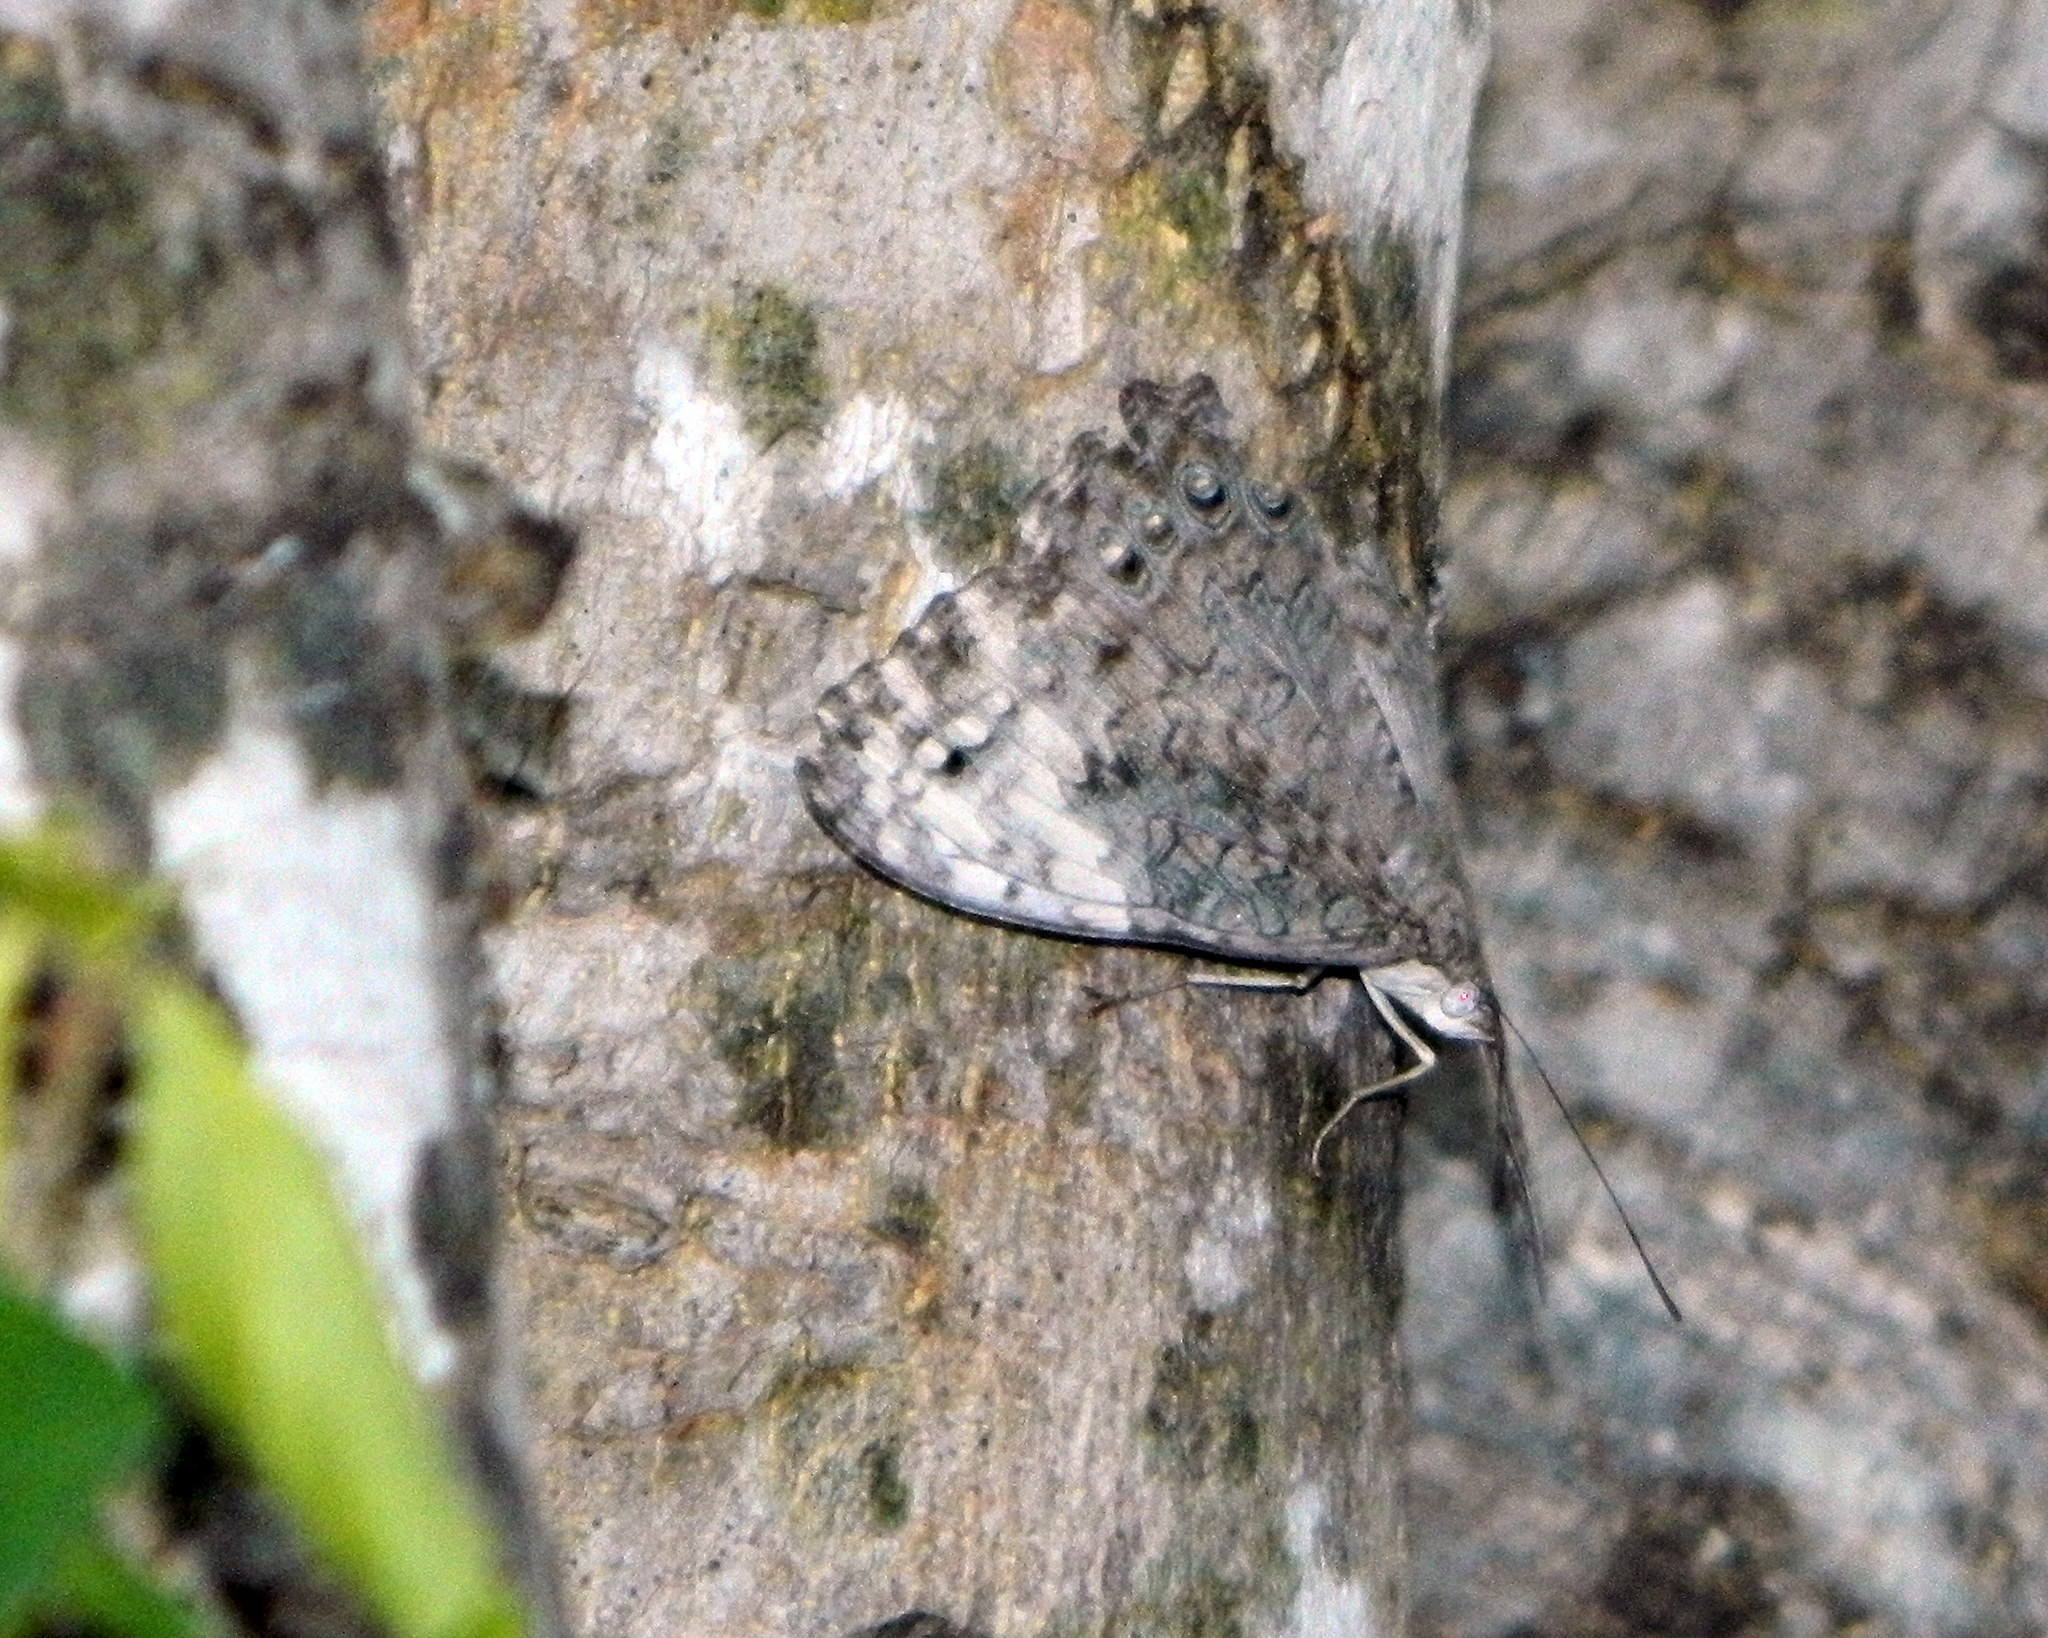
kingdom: Animalia
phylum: Arthropoda
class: Insecta
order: Lepidoptera
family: Nymphalidae
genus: Hamadryas
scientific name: Hamadryas glauconome
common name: Glaucous cracker
